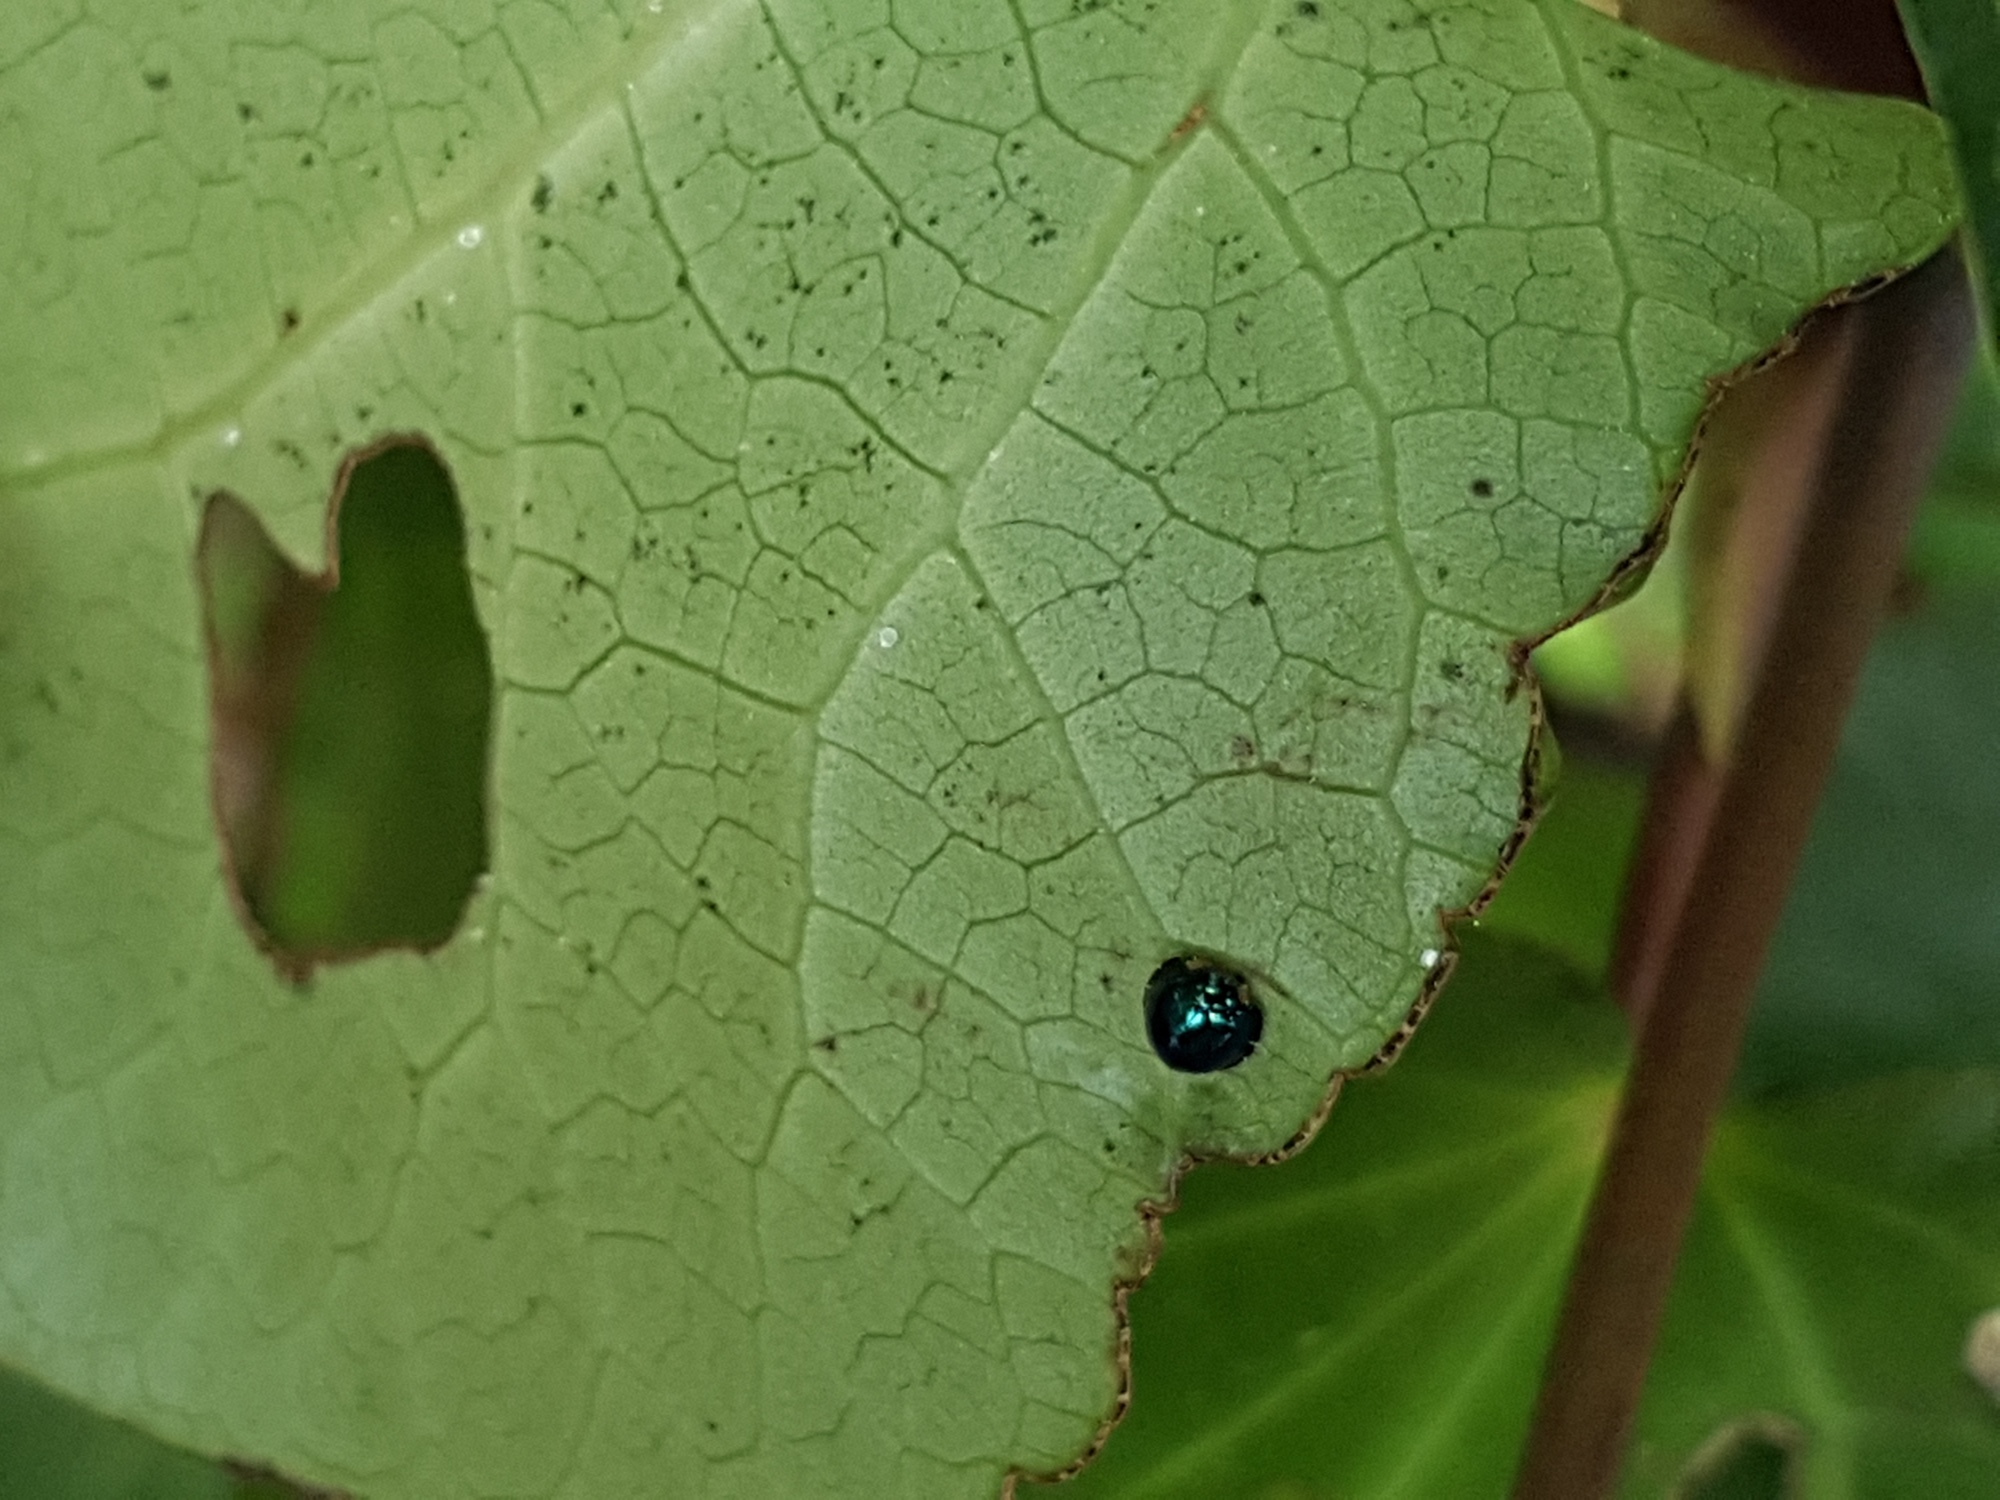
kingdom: Animalia
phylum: Arthropoda
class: Insecta
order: Coleoptera
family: Coccinellidae
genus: Halmus
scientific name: Halmus chalybeus
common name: Steel blue ladybird beetle
